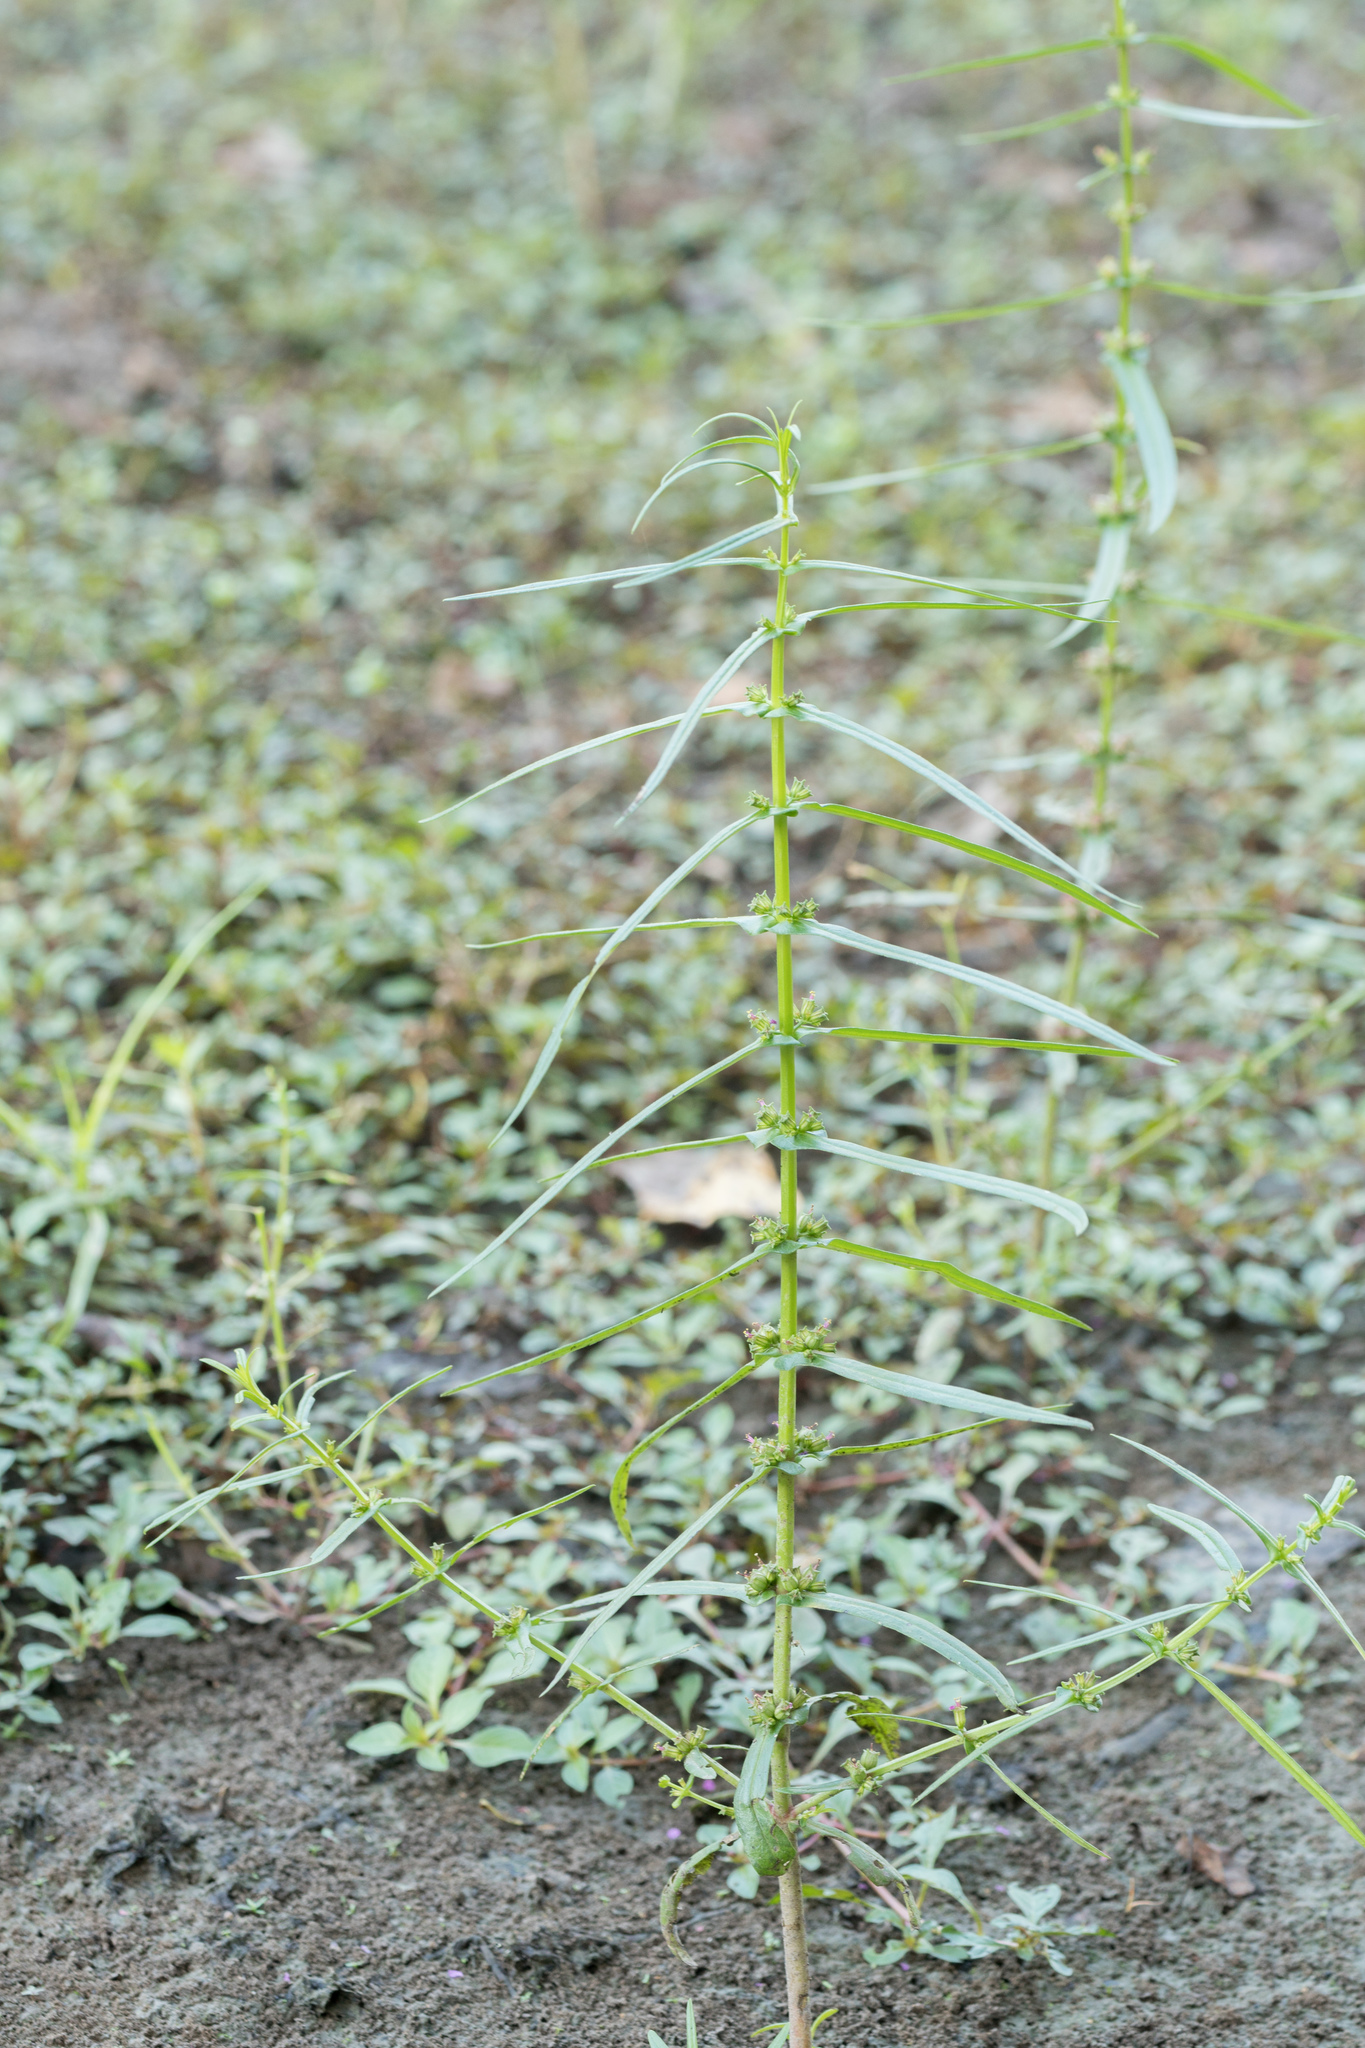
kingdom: Plantae
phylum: Tracheophyta
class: Magnoliopsida
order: Myrtales
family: Lythraceae
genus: Ammannia
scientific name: Ammannia coccinea
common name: Valley redstem
